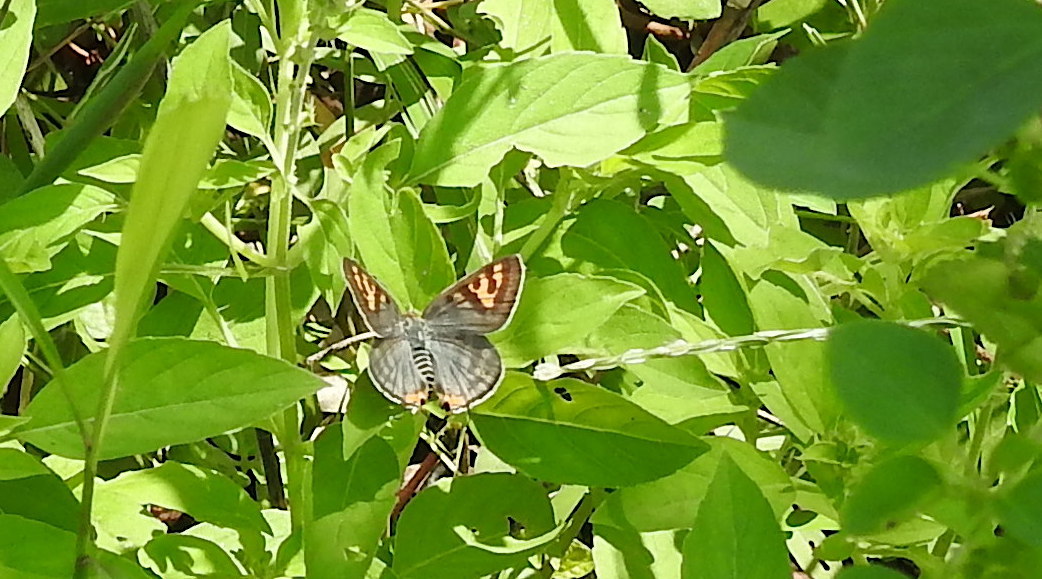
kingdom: Animalia
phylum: Arthropoda
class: Insecta
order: Lepidoptera
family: Lycaenidae
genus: Cigaritis
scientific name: Cigaritis vulcanus
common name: Common silverline
